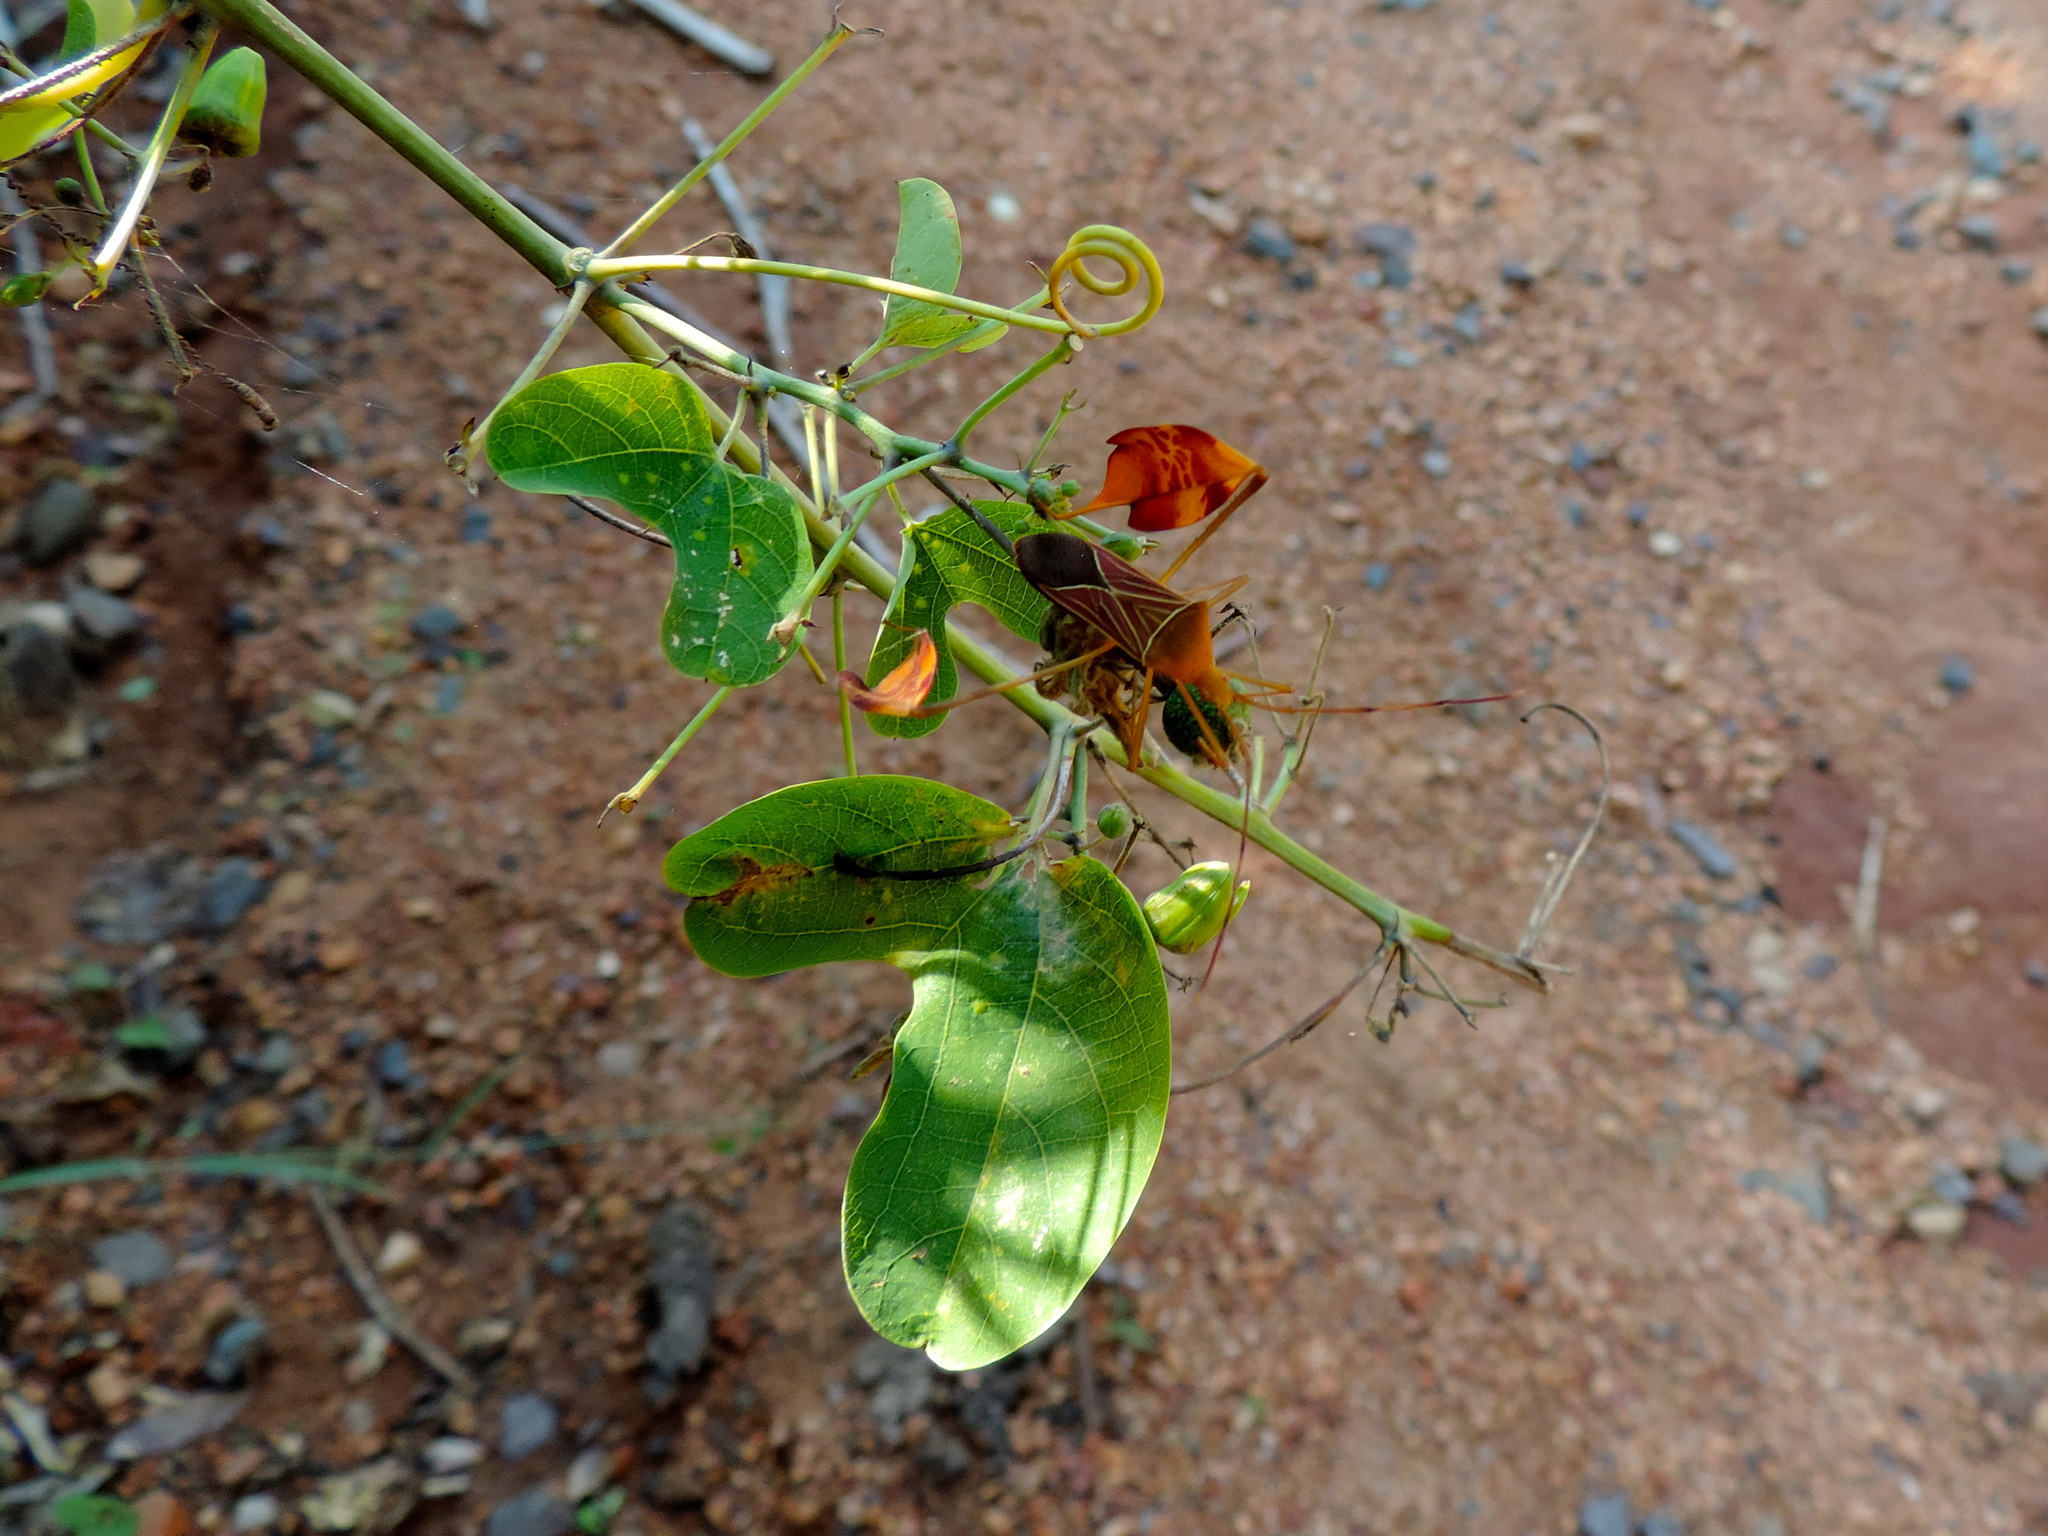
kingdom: Plantae
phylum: Tracheophyta
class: Magnoliopsida
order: Malpighiales
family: Passifloraceae
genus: Passiflora
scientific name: Passiflora mexicana
